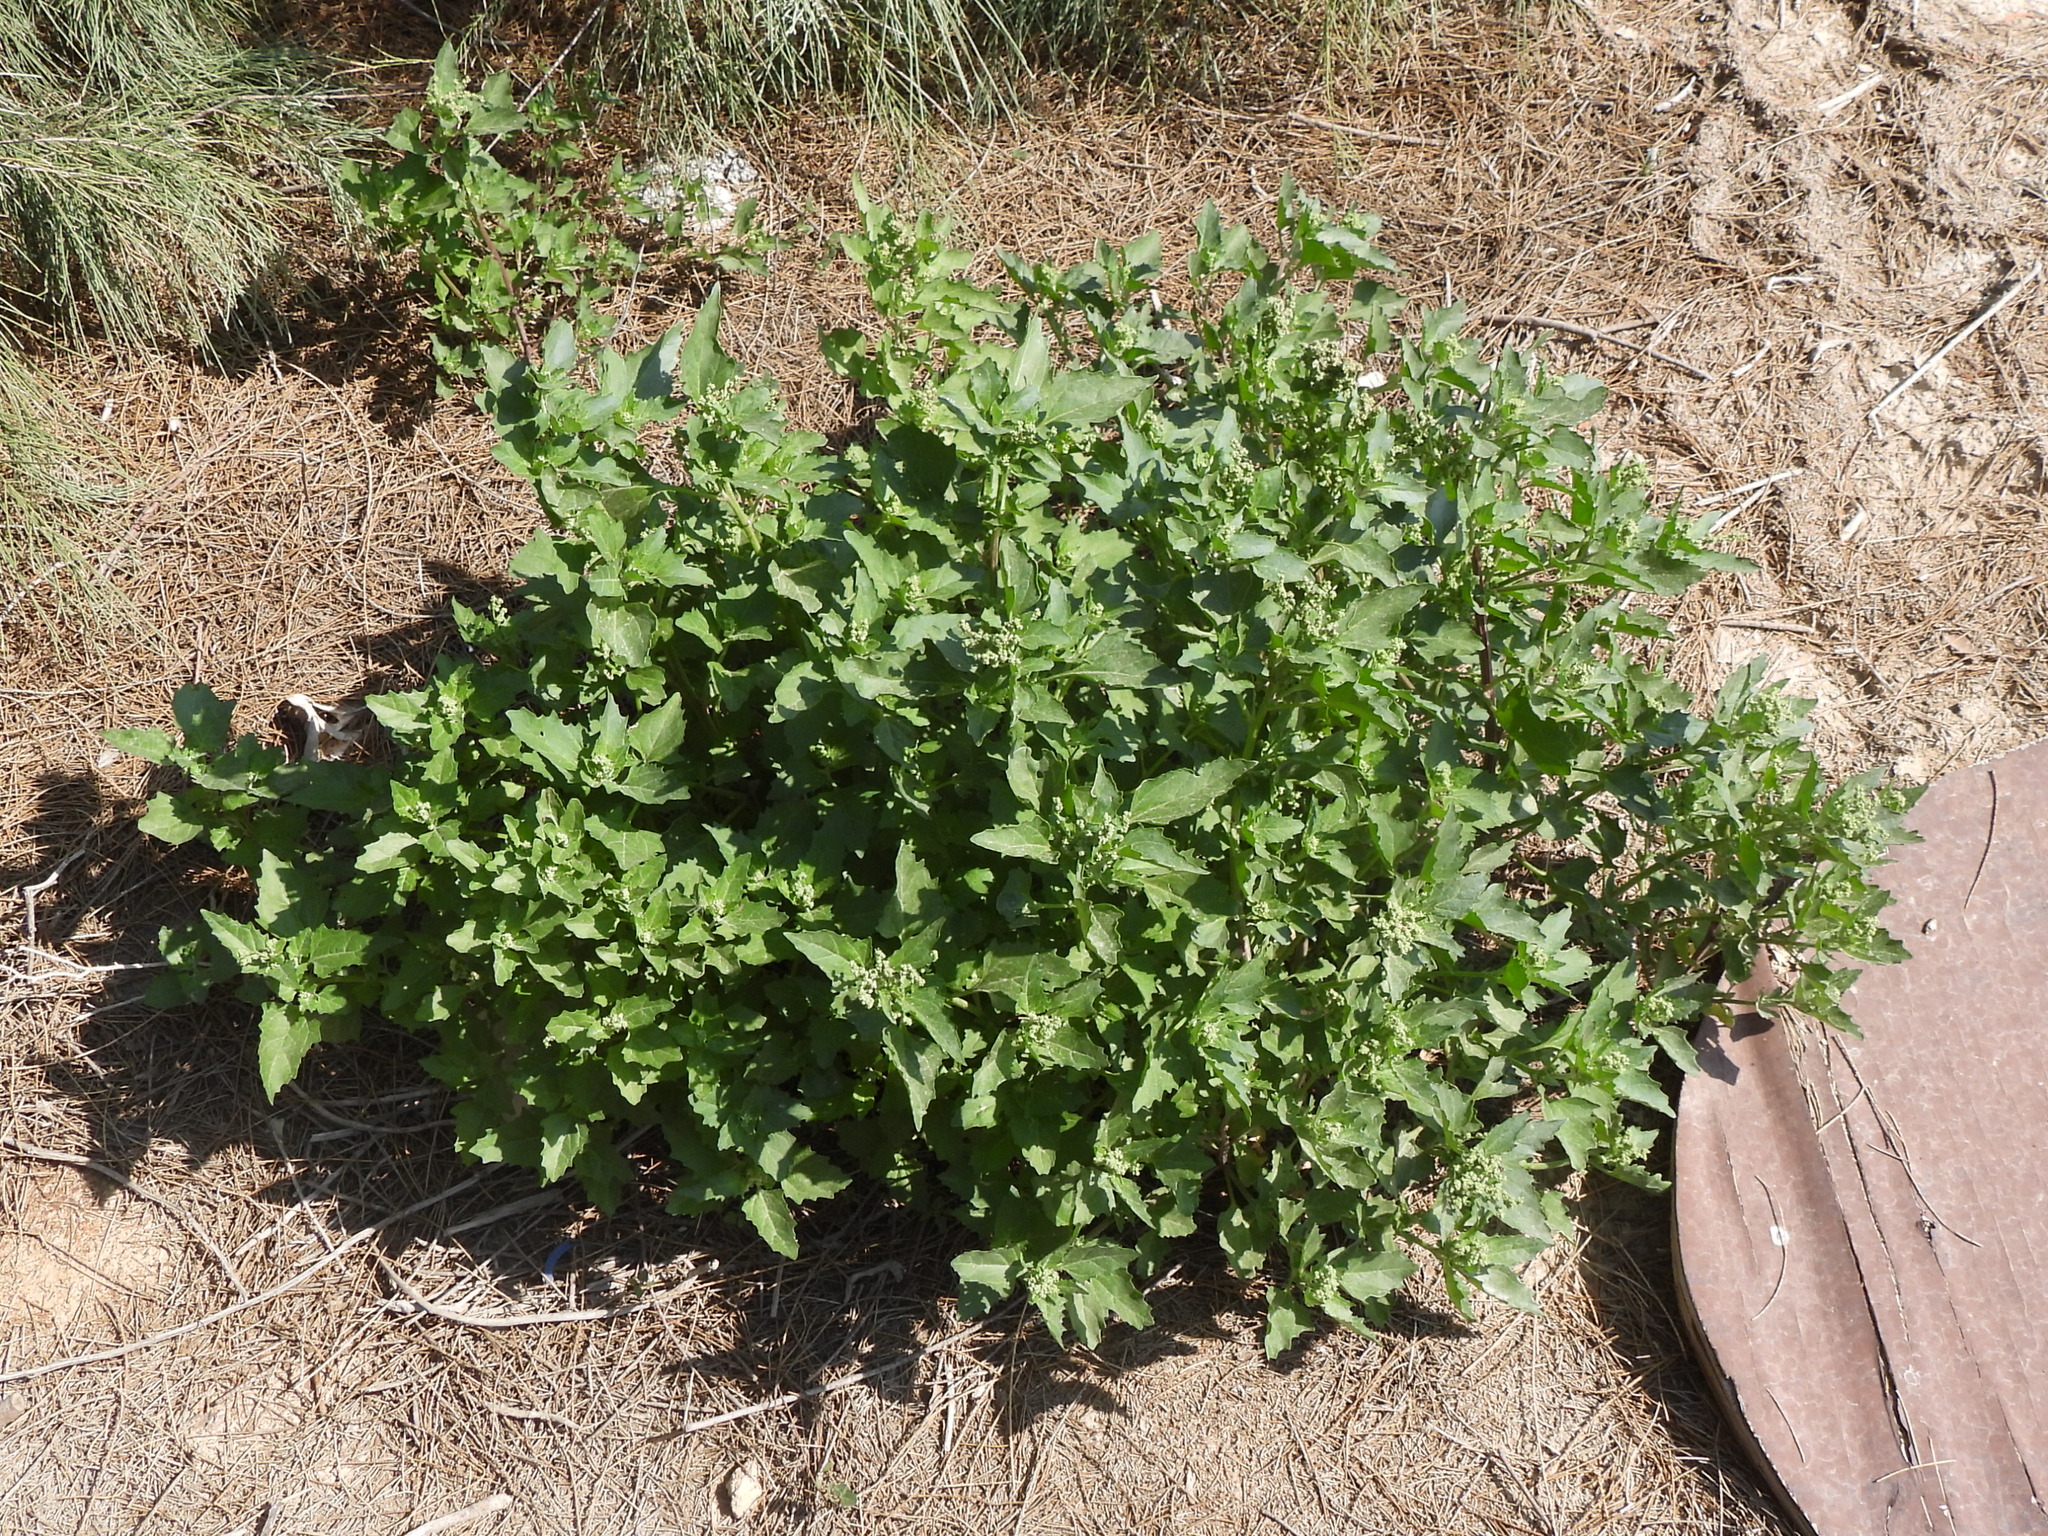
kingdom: Plantae
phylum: Tracheophyta
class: Magnoliopsida
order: Caryophyllales
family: Amaranthaceae
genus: Chenopodiastrum
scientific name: Chenopodiastrum murale
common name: Sowbane
